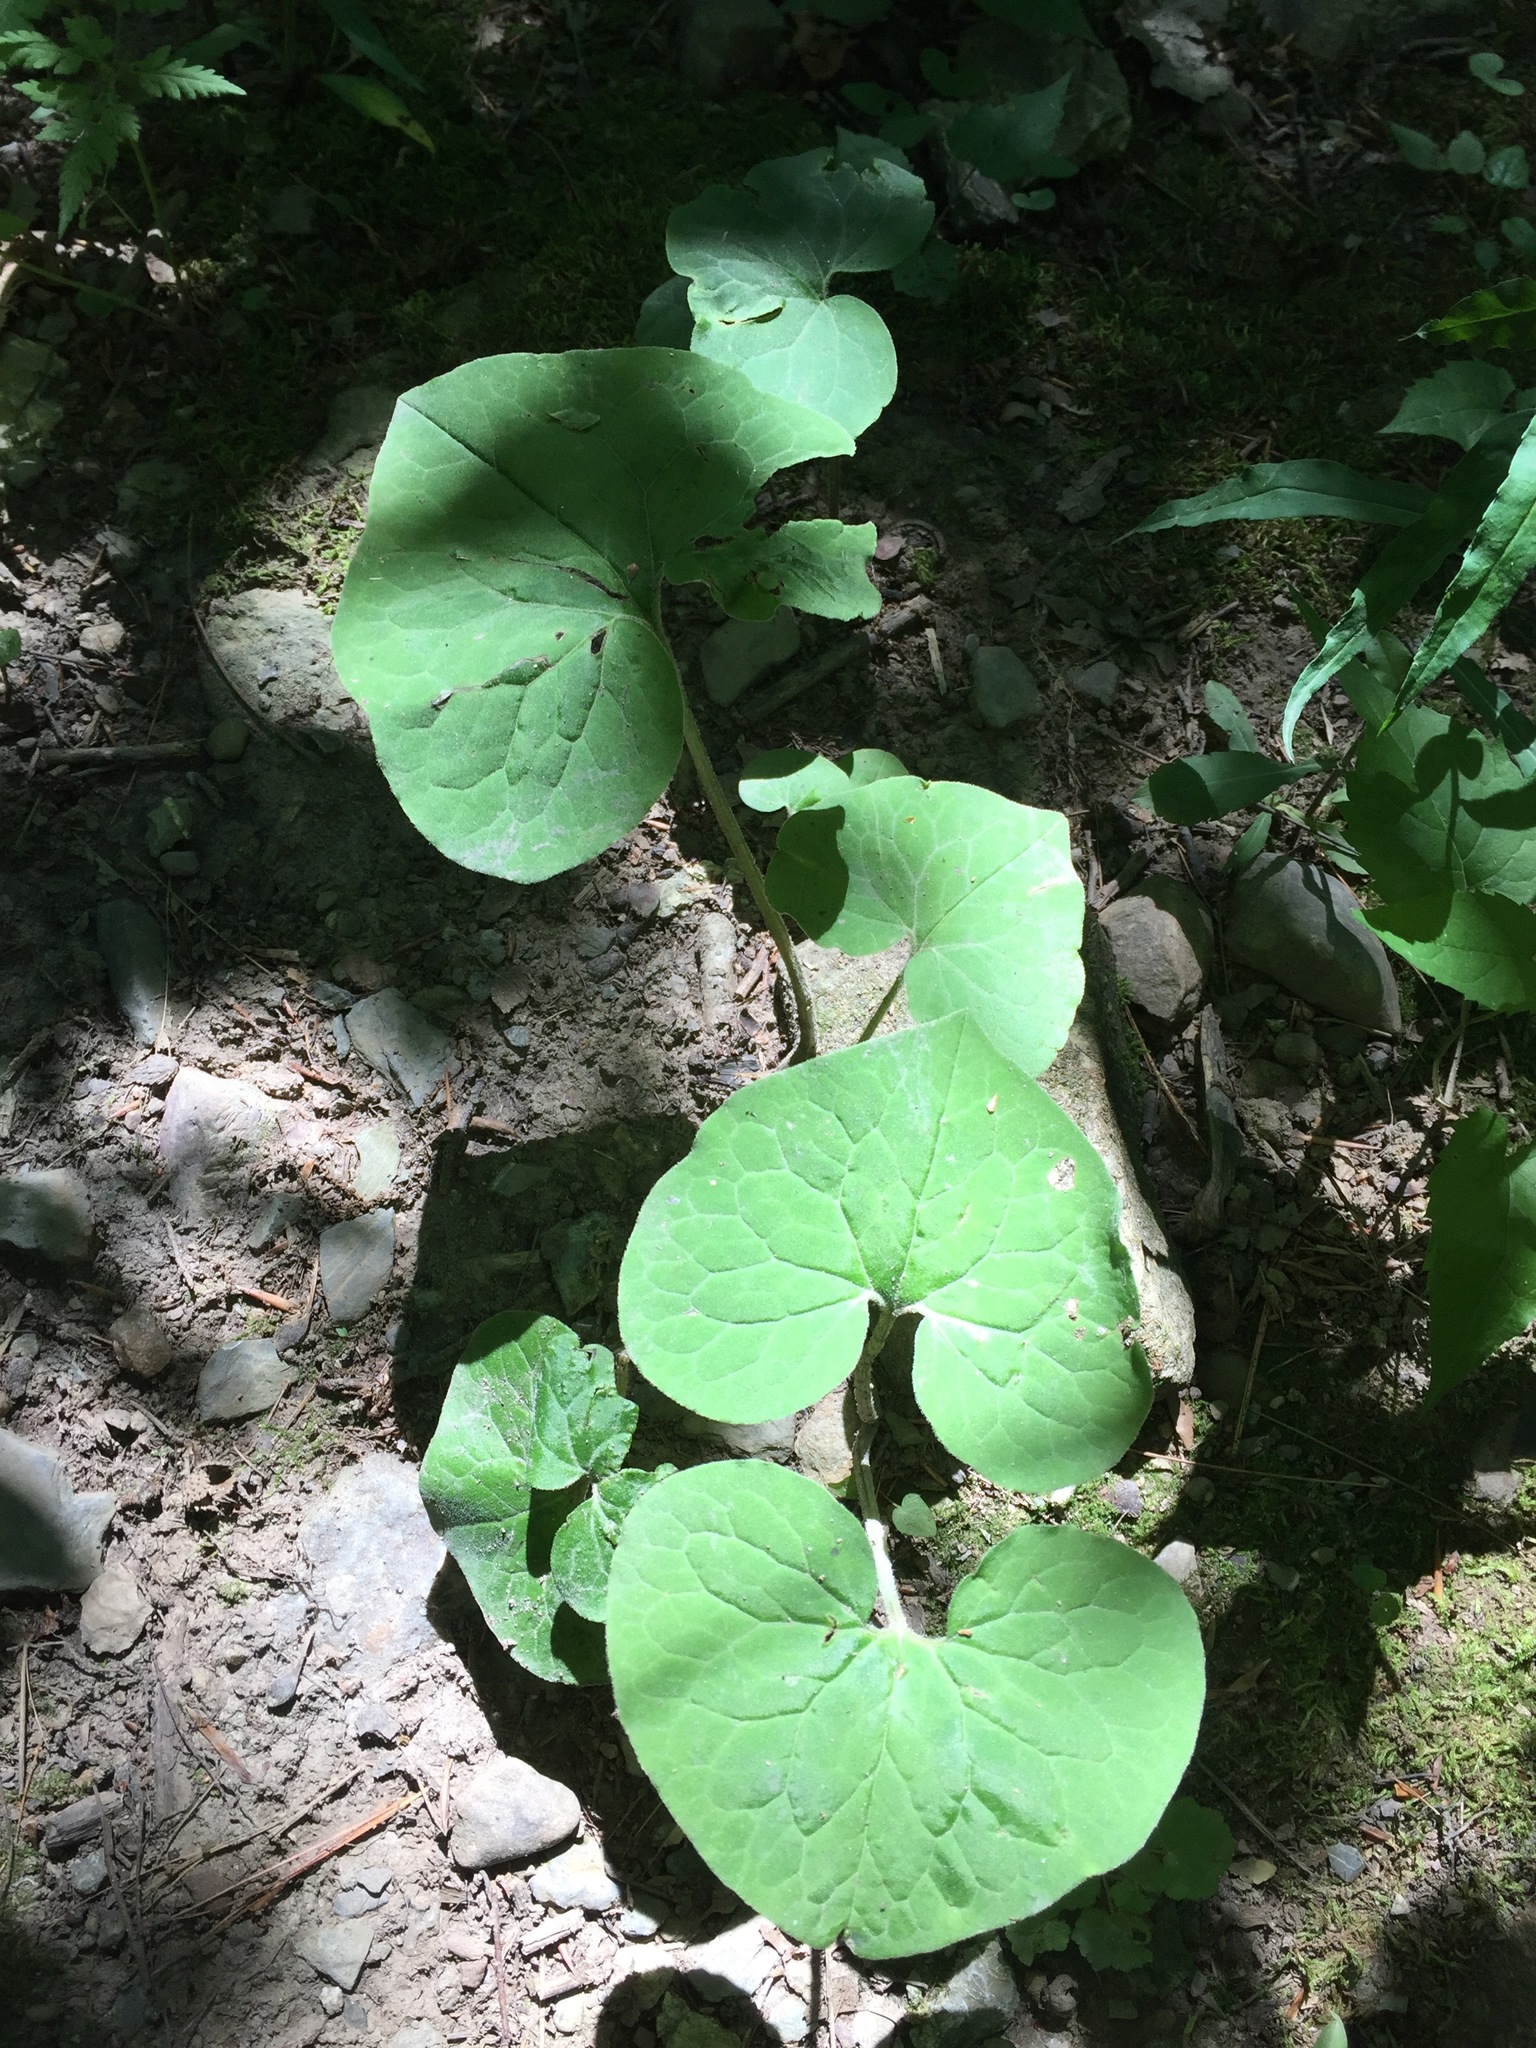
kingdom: Plantae
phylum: Tracheophyta
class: Magnoliopsida
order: Piperales
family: Aristolochiaceae
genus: Asarum
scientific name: Asarum canadense
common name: Wild ginger
